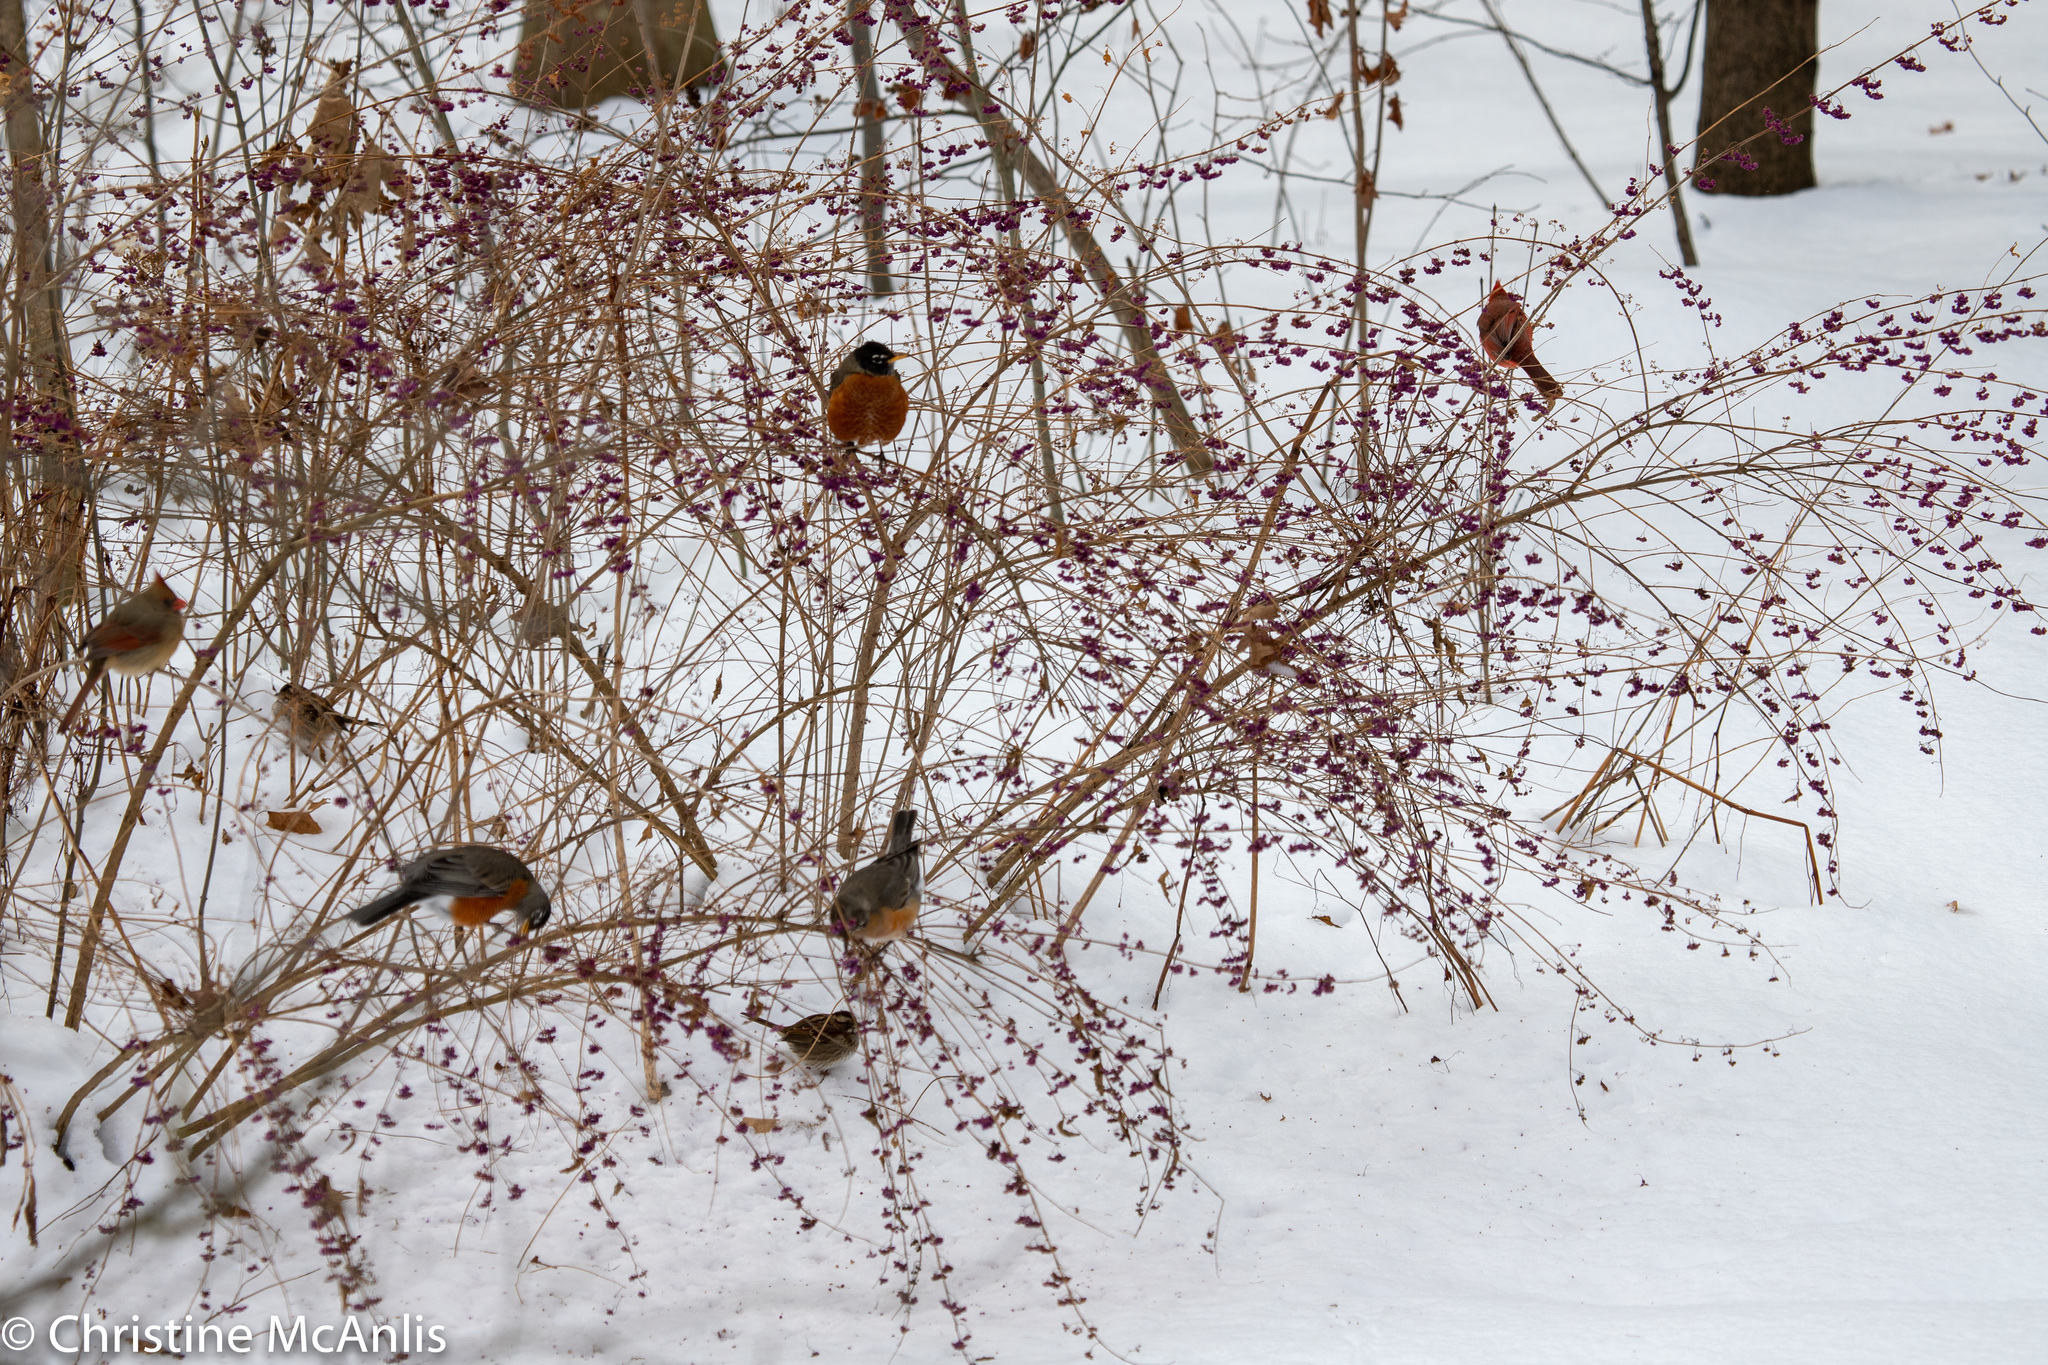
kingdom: Animalia
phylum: Chordata
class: Aves
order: Passeriformes
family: Turdidae
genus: Turdus
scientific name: Turdus migratorius
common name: American robin
